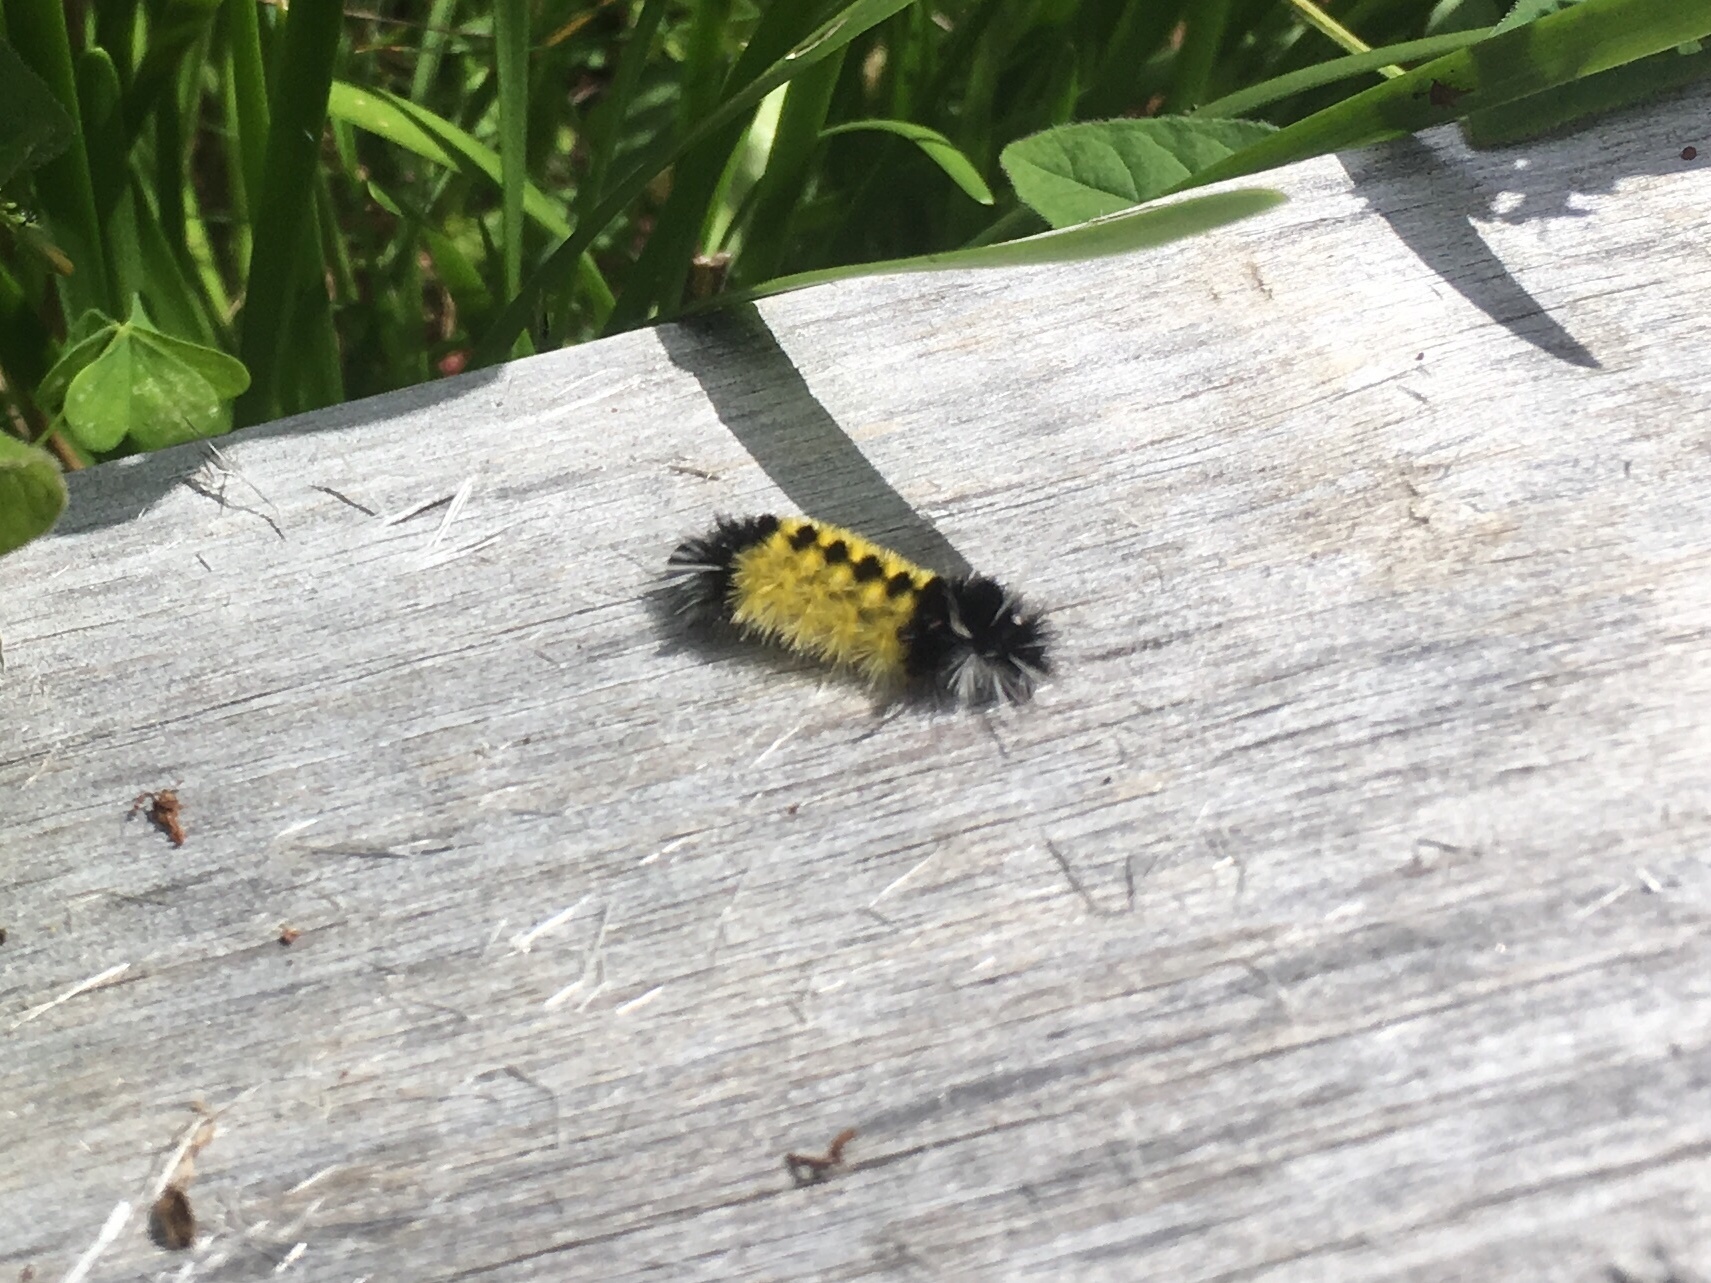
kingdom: Animalia
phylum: Arthropoda
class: Insecta
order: Lepidoptera
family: Erebidae
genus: Lophocampa
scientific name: Lophocampa maculata
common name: Spotted tussock moth
